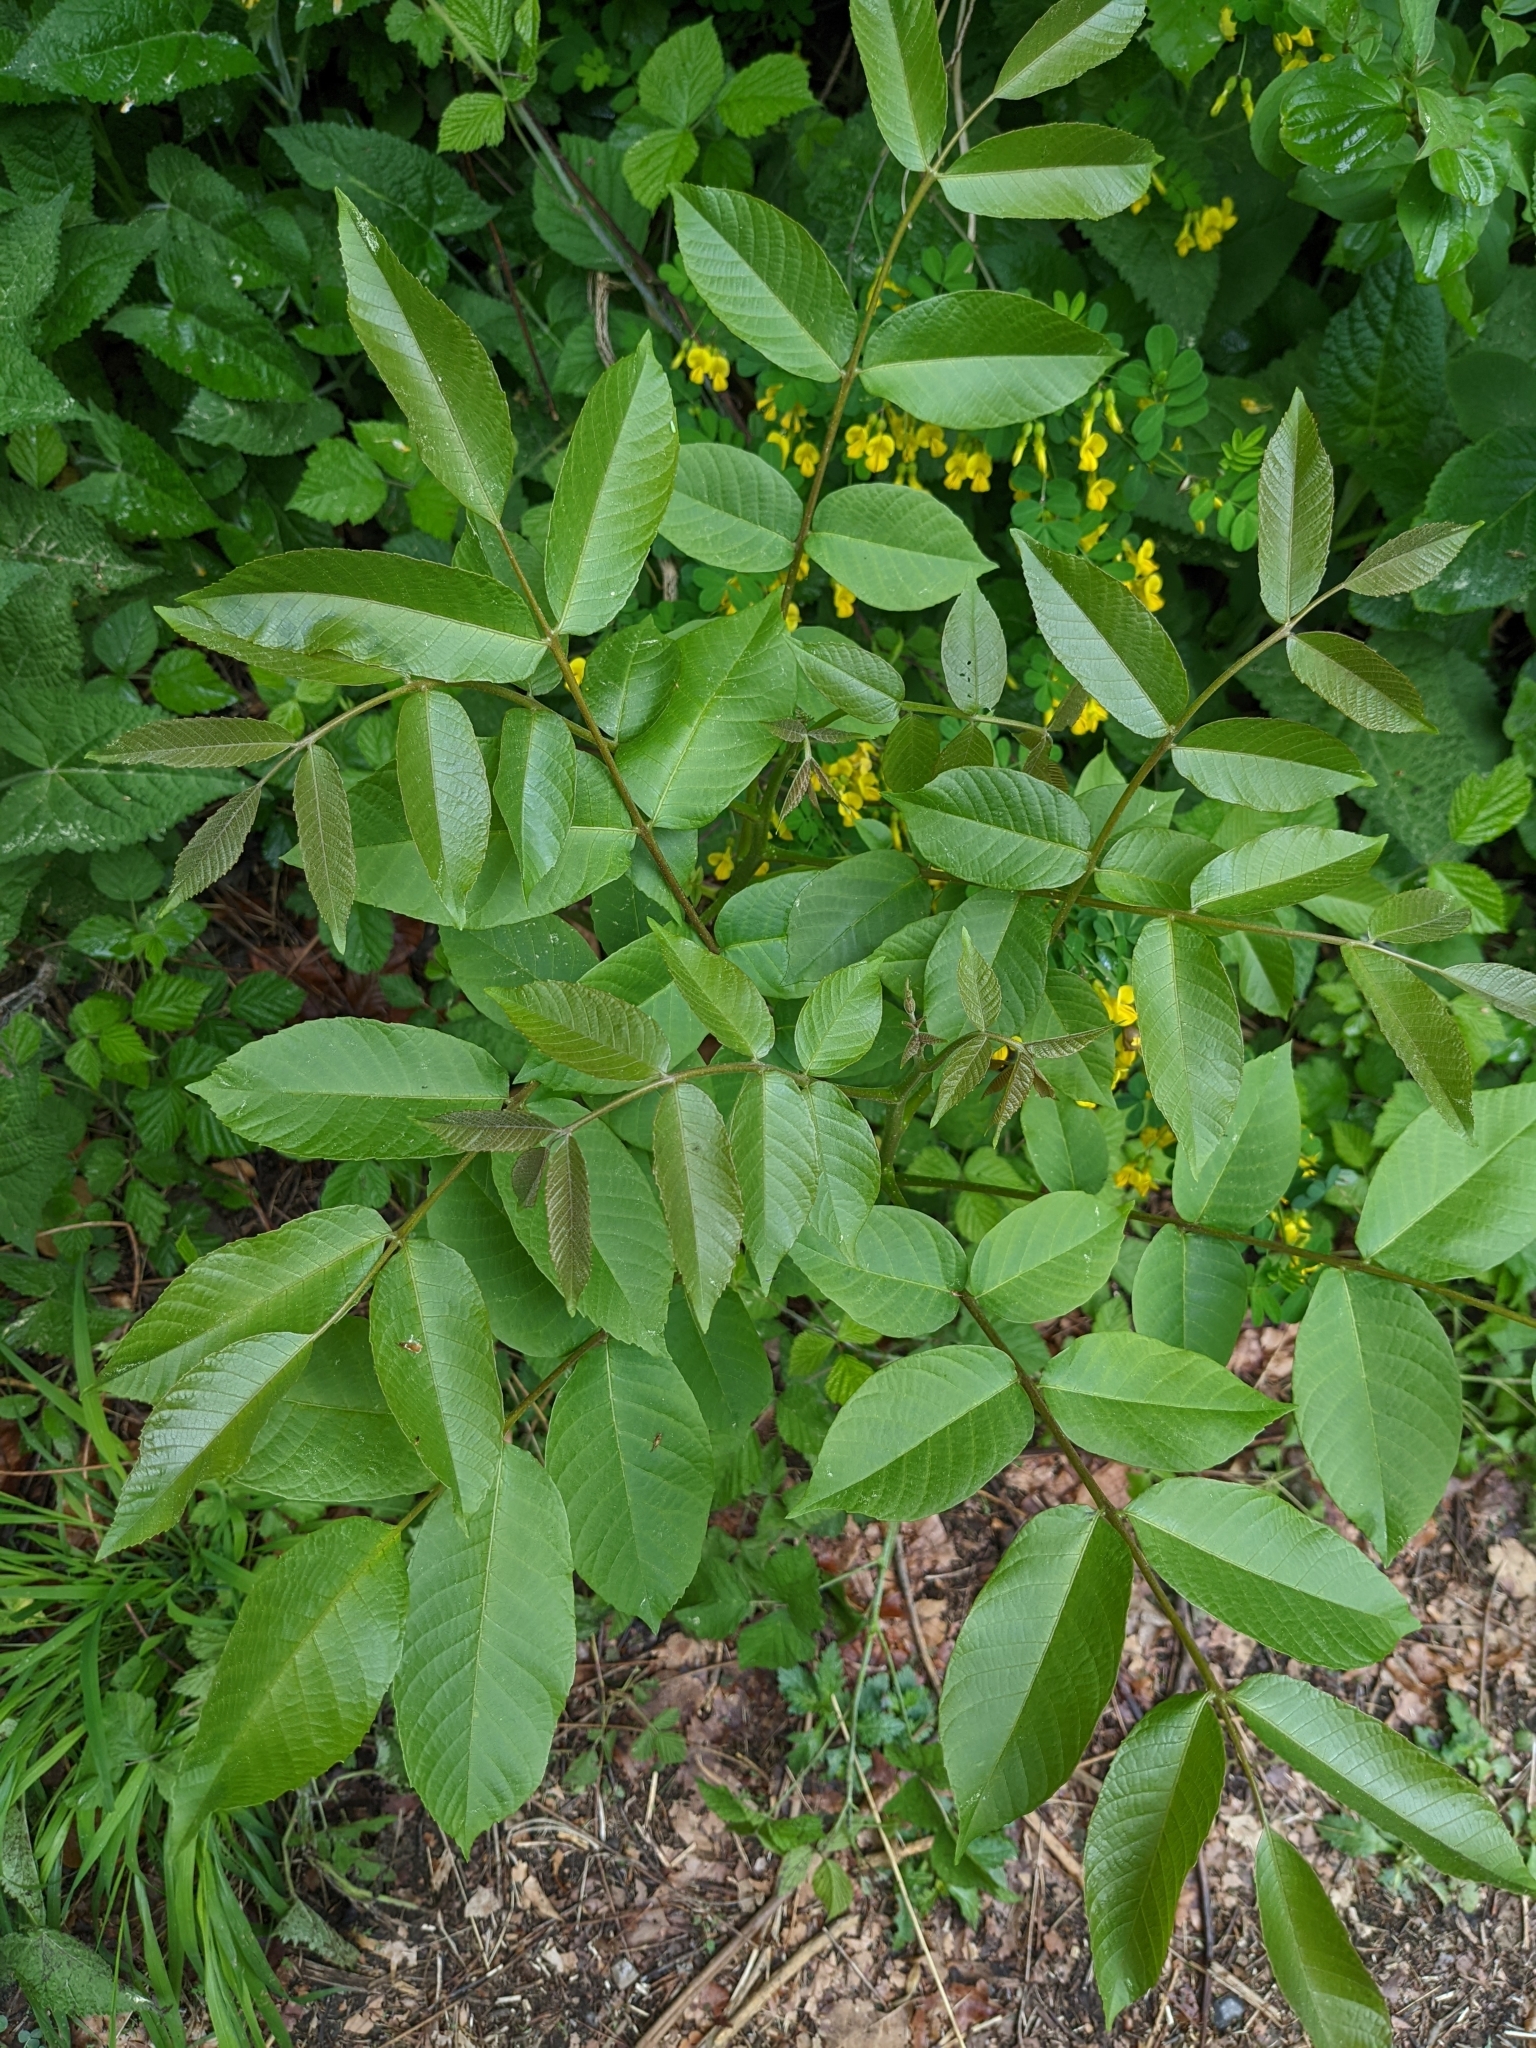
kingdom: Plantae
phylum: Tracheophyta
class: Magnoliopsida
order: Fagales
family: Juglandaceae
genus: Juglans
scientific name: Juglans regia
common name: Walnut
